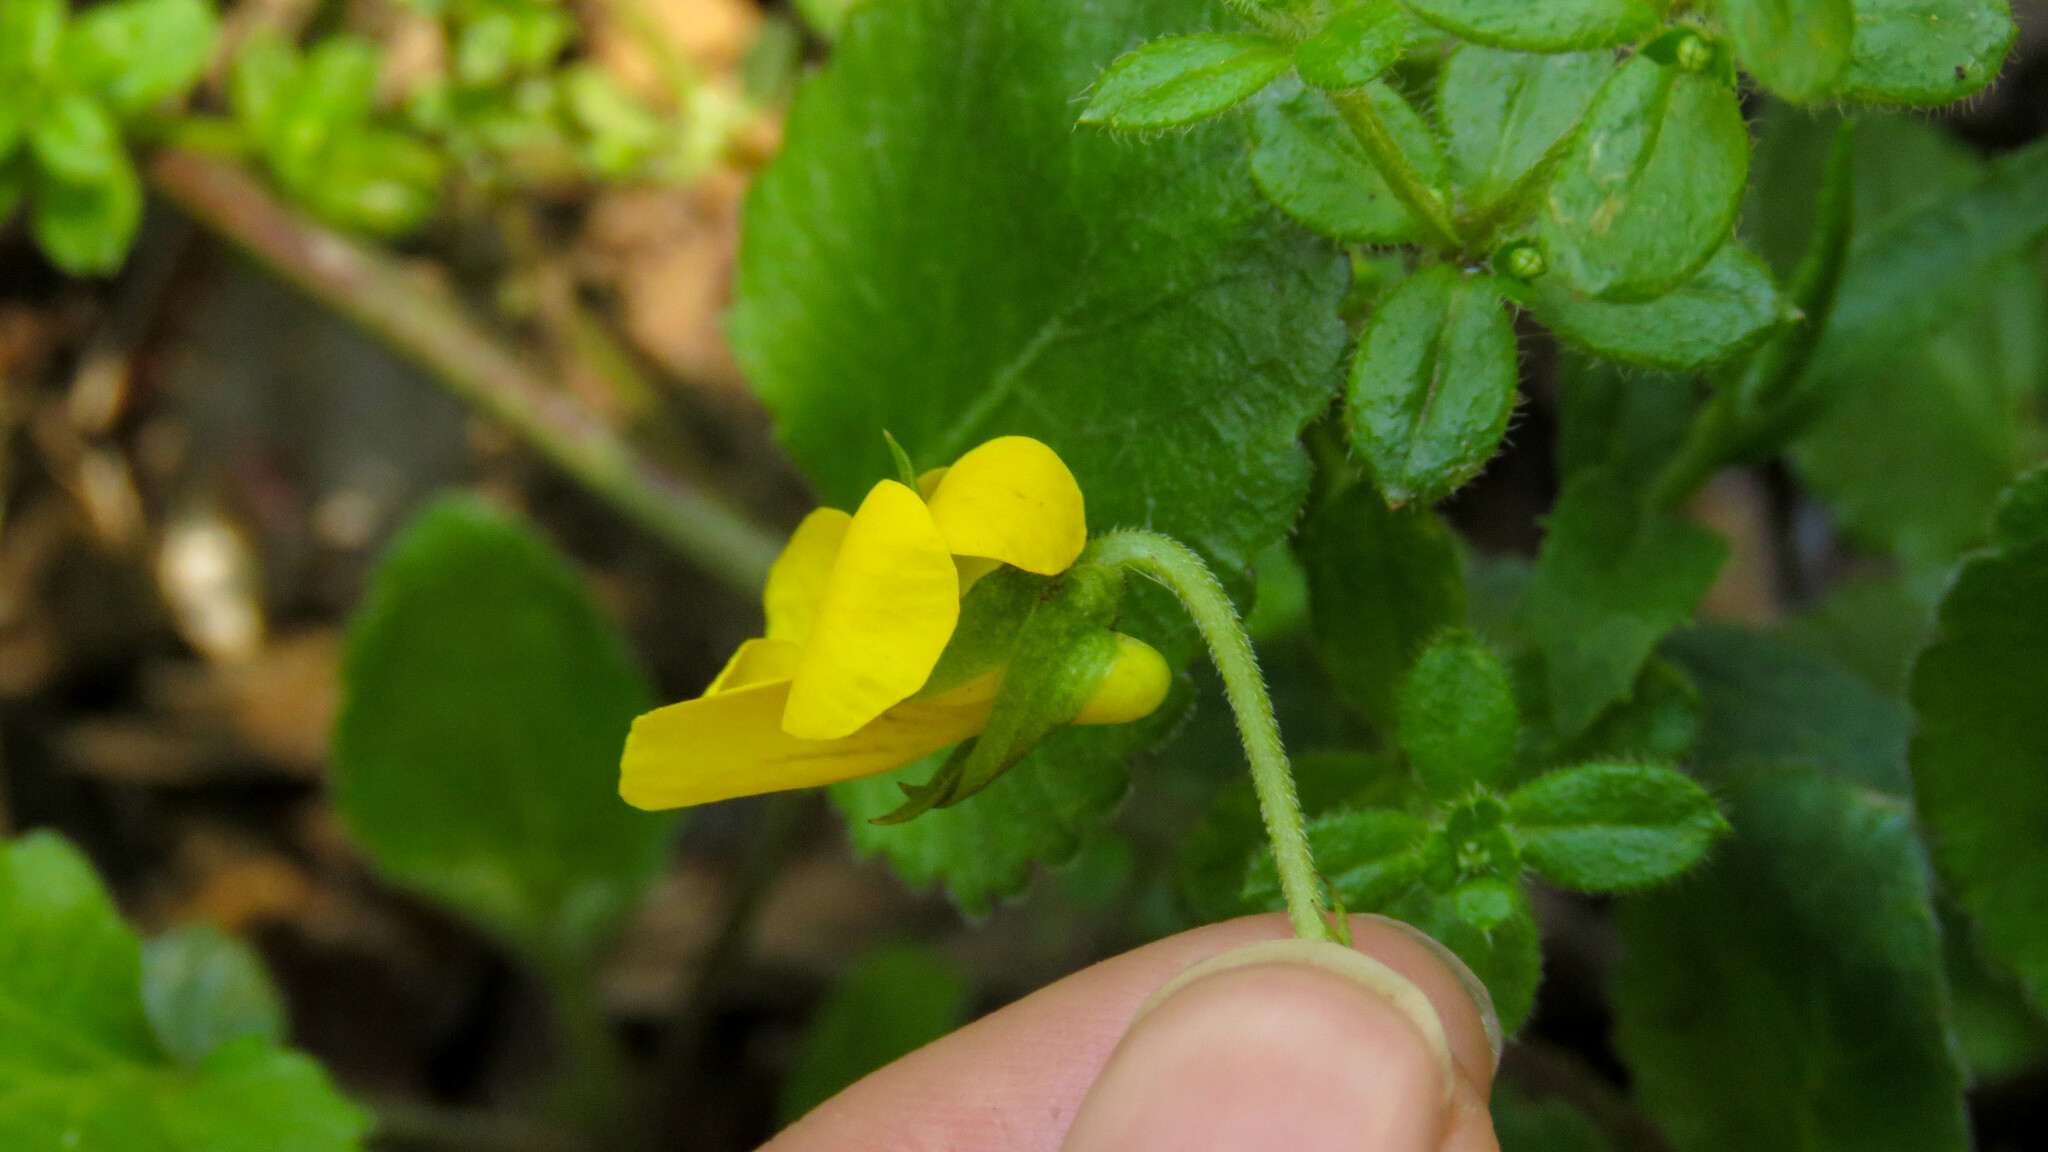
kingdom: Plantae
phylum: Tracheophyta
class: Magnoliopsida
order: Malpighiales
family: Violaceae
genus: Viola
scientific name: Viola reichei
